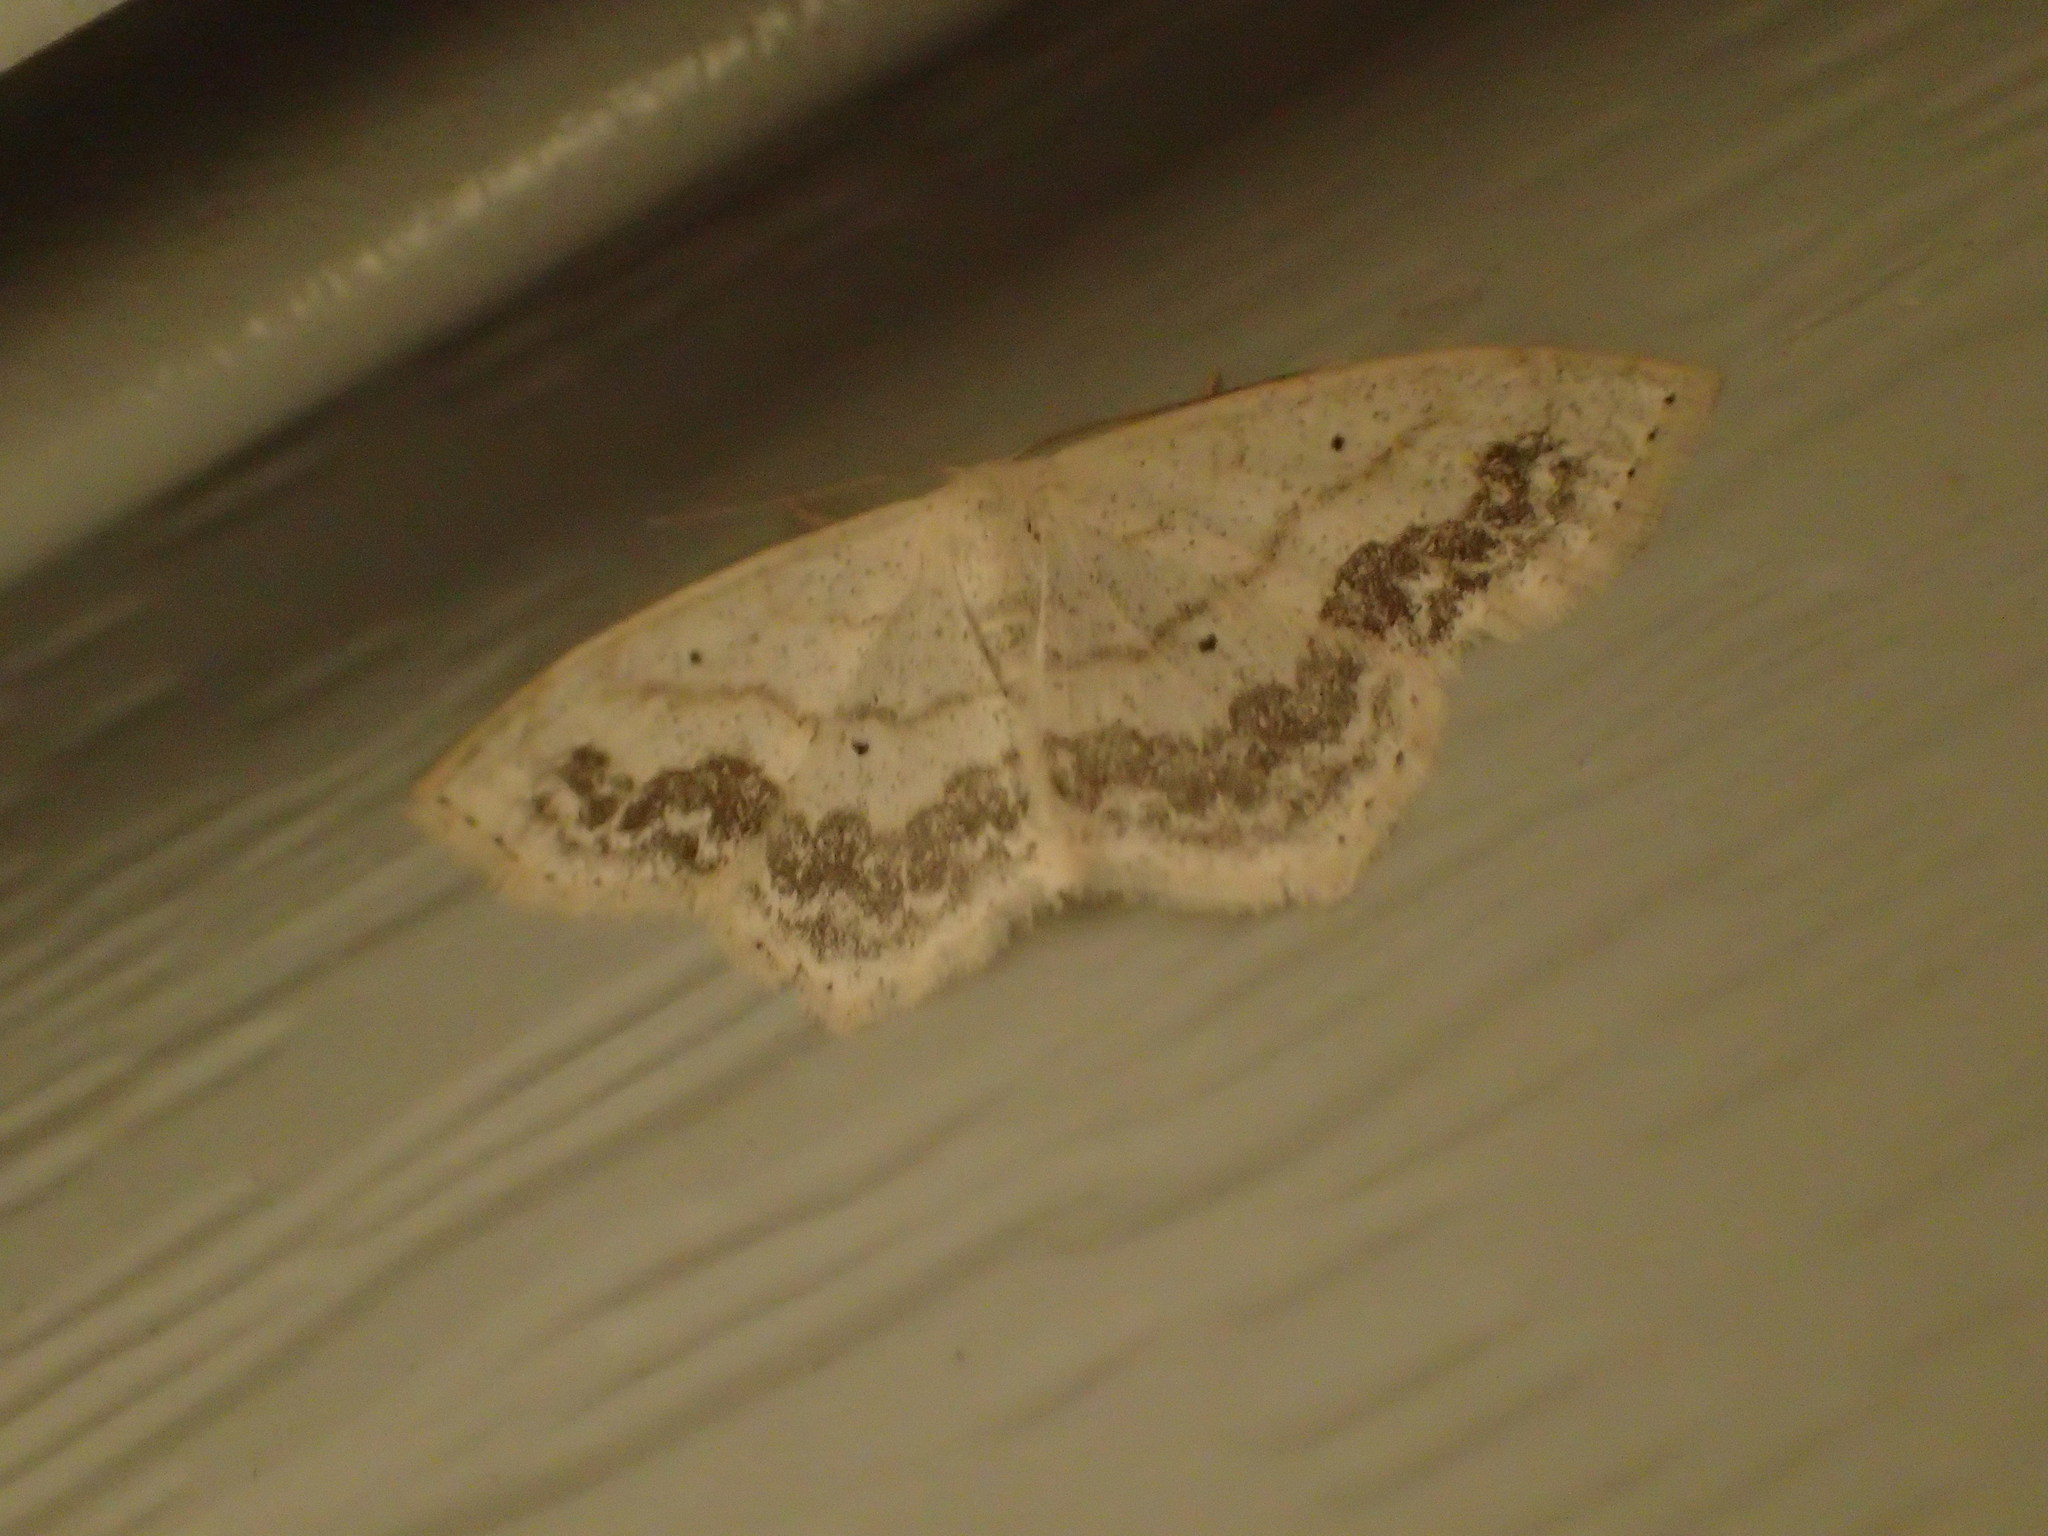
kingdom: Animalia
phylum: Arthropoda
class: Insecta
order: Lepidoptera
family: Geometridae
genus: Scopula
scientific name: Scopula limboundata
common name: Large lace border
